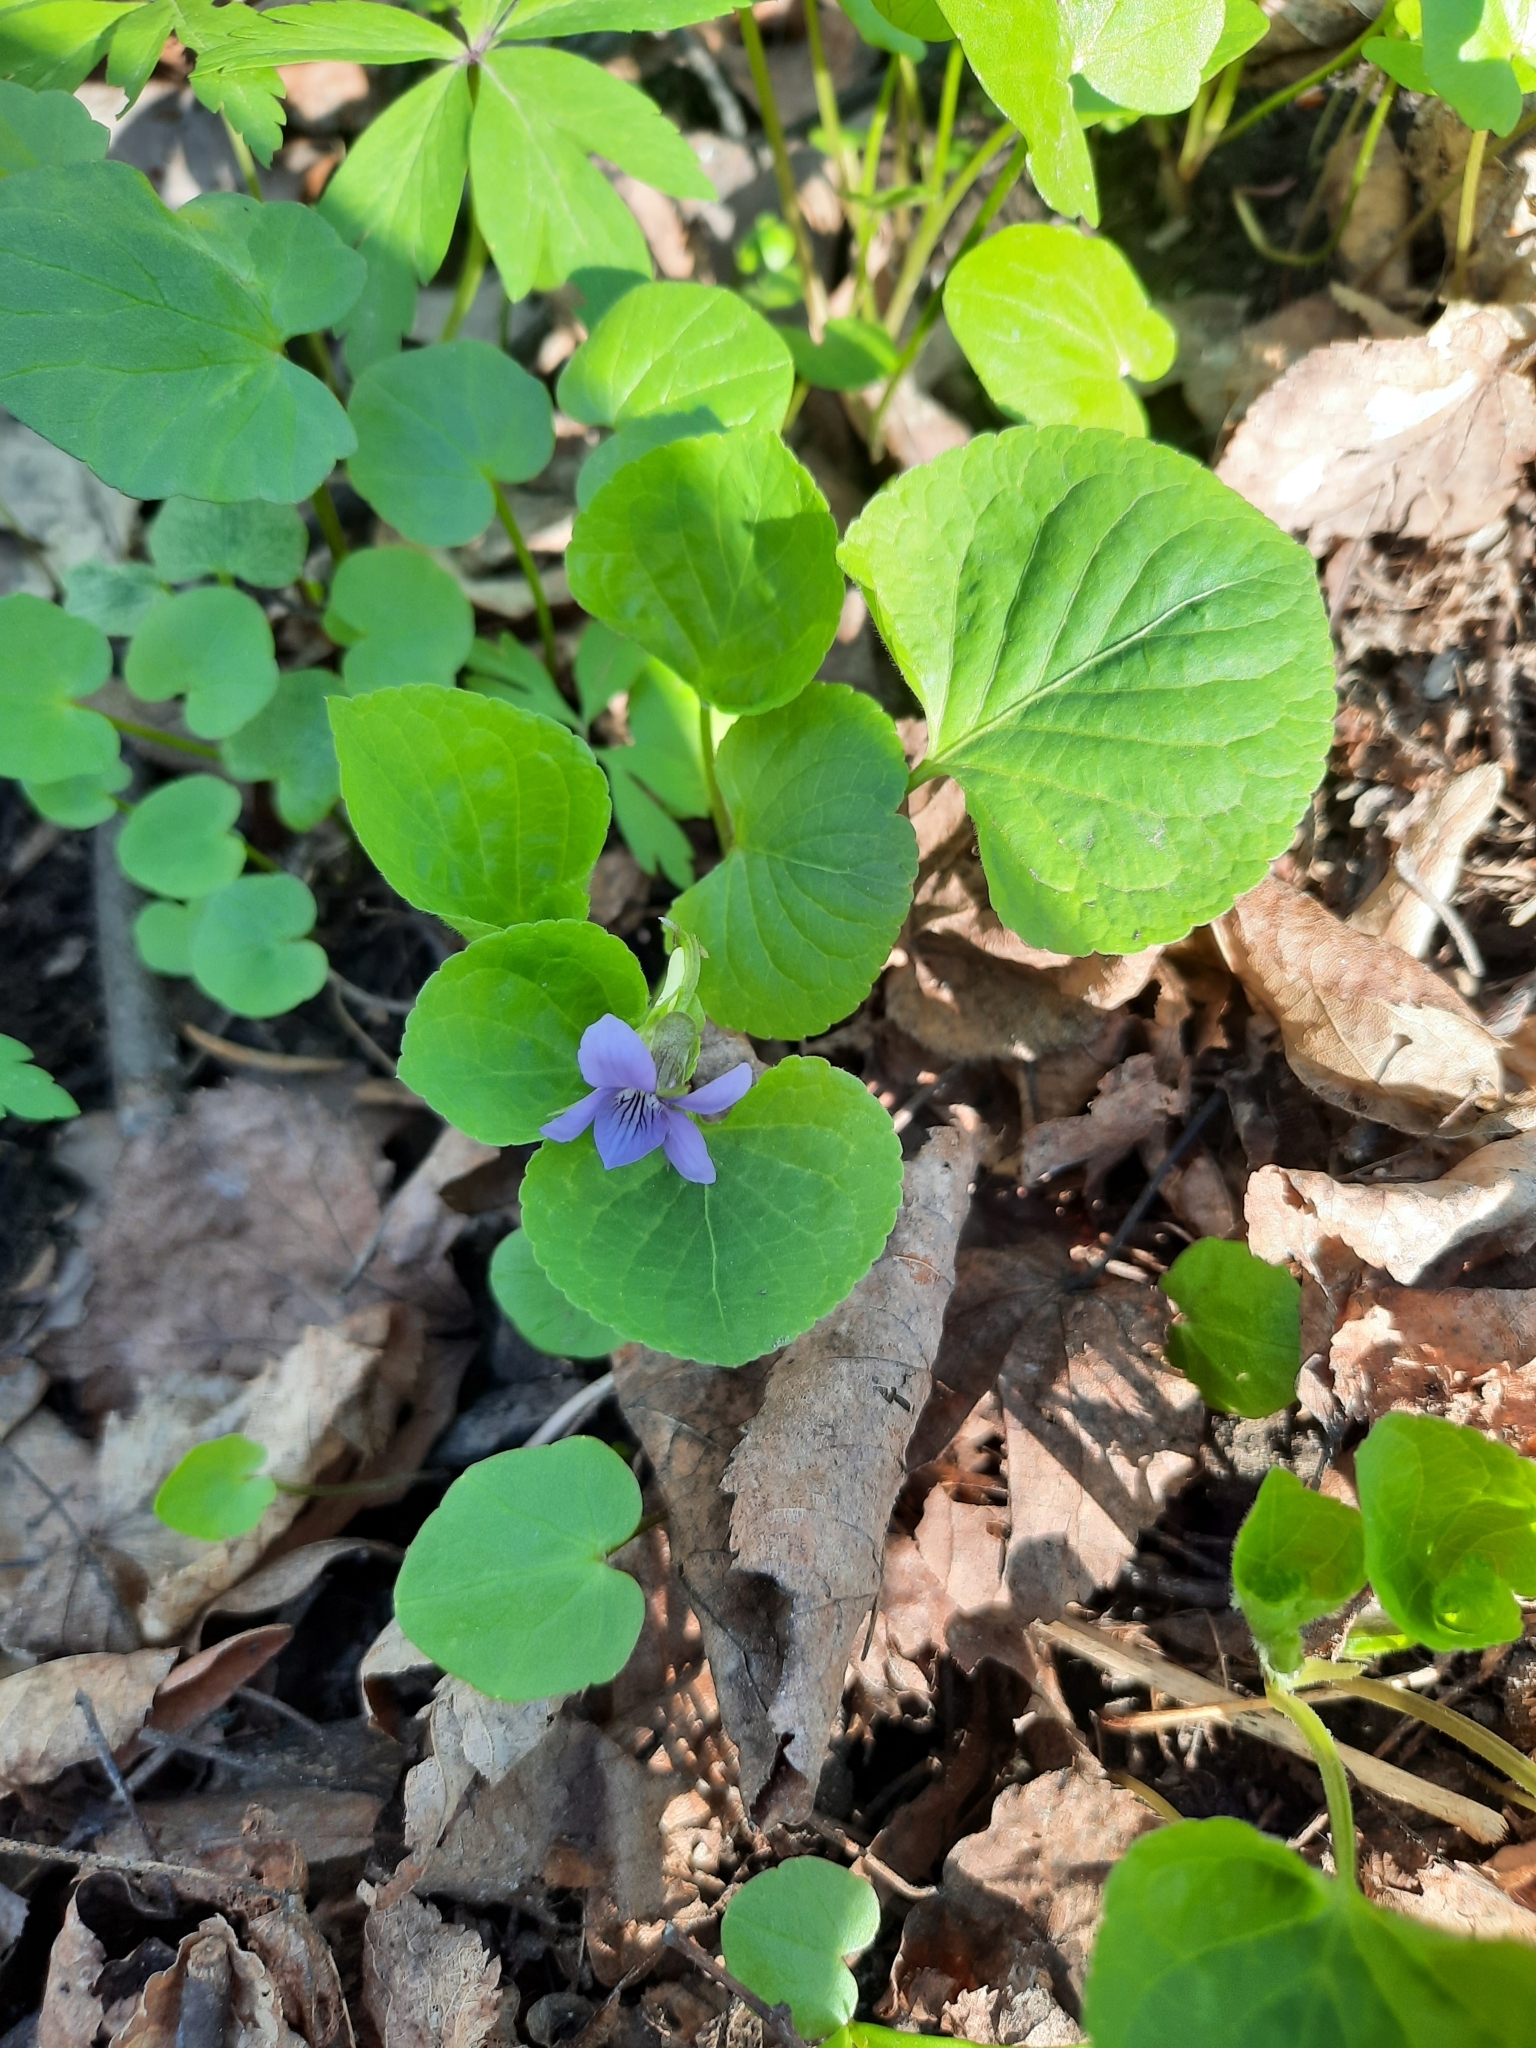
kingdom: Plantae
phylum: Tracheophyta
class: Magnoliopsida
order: Malpighiales
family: Violaceae
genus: Viola
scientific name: Viola mirabilis
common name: Wonder violet
